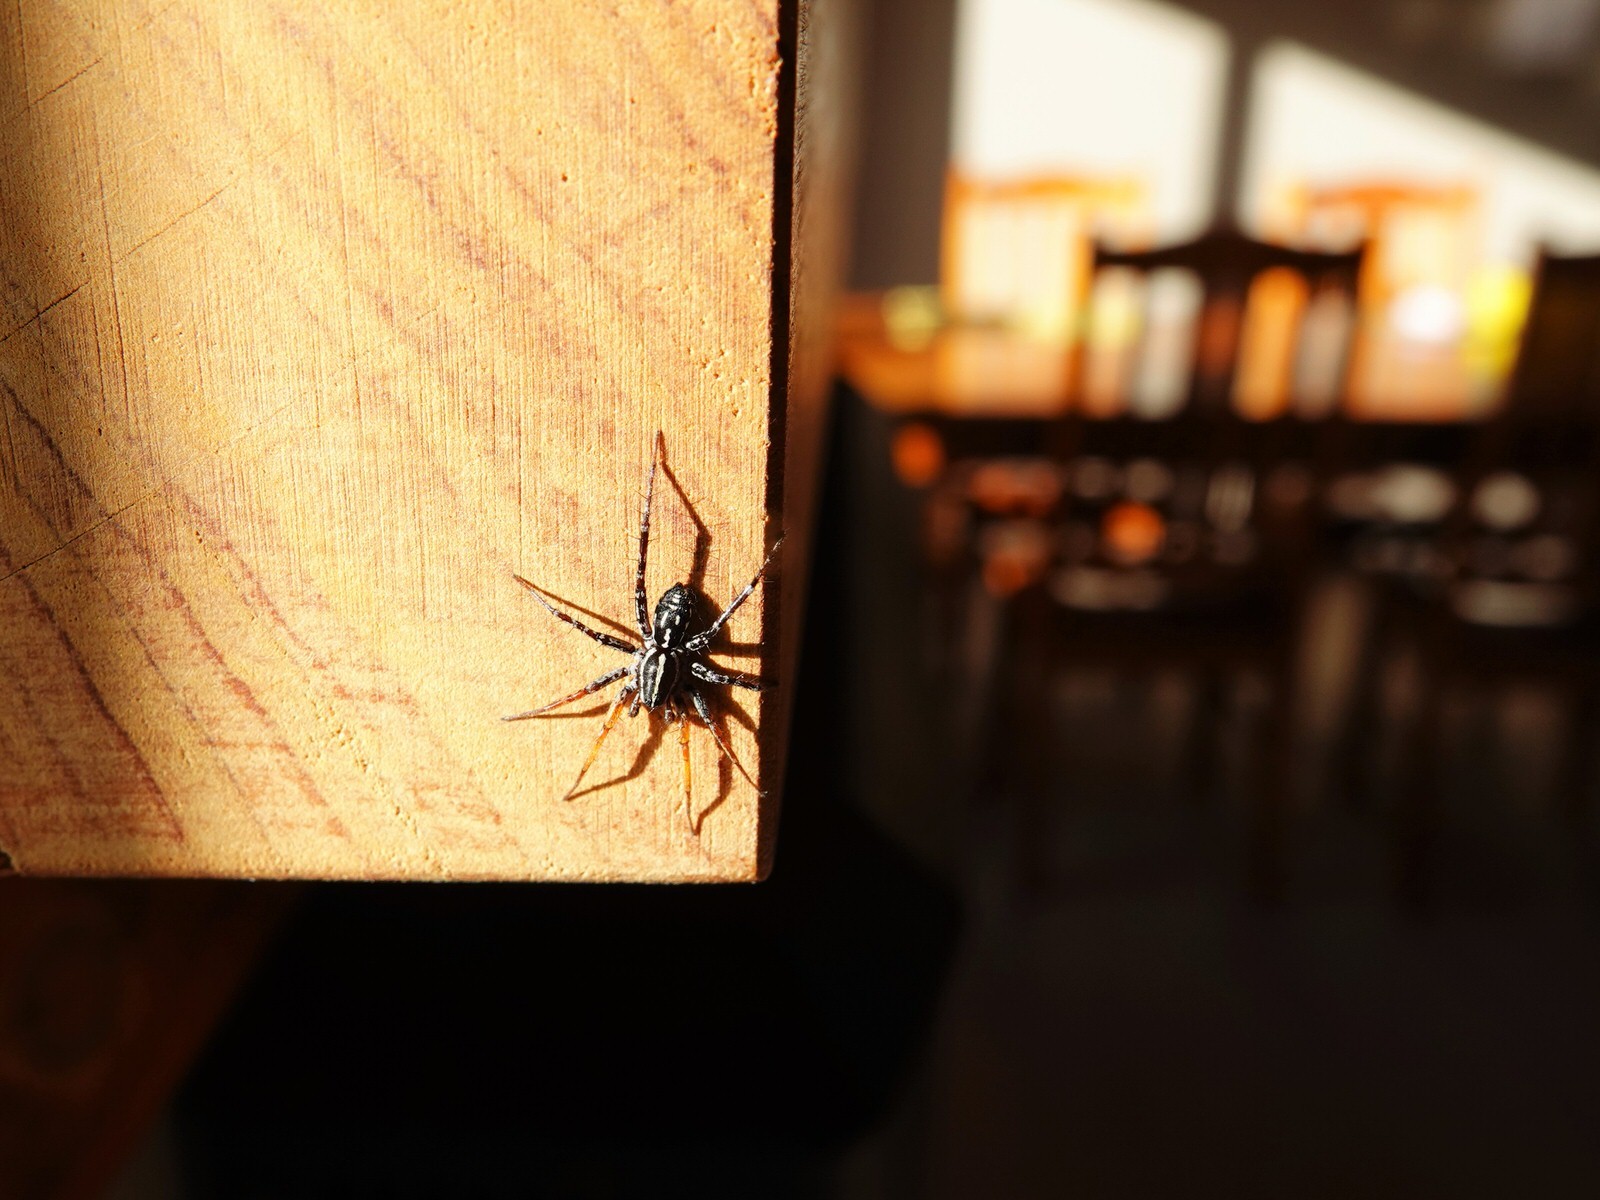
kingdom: Animalia
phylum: Arthropoda
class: Arachnida
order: Araneae
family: Corinnidae
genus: Nyssus
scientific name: Nyssus coloripes
